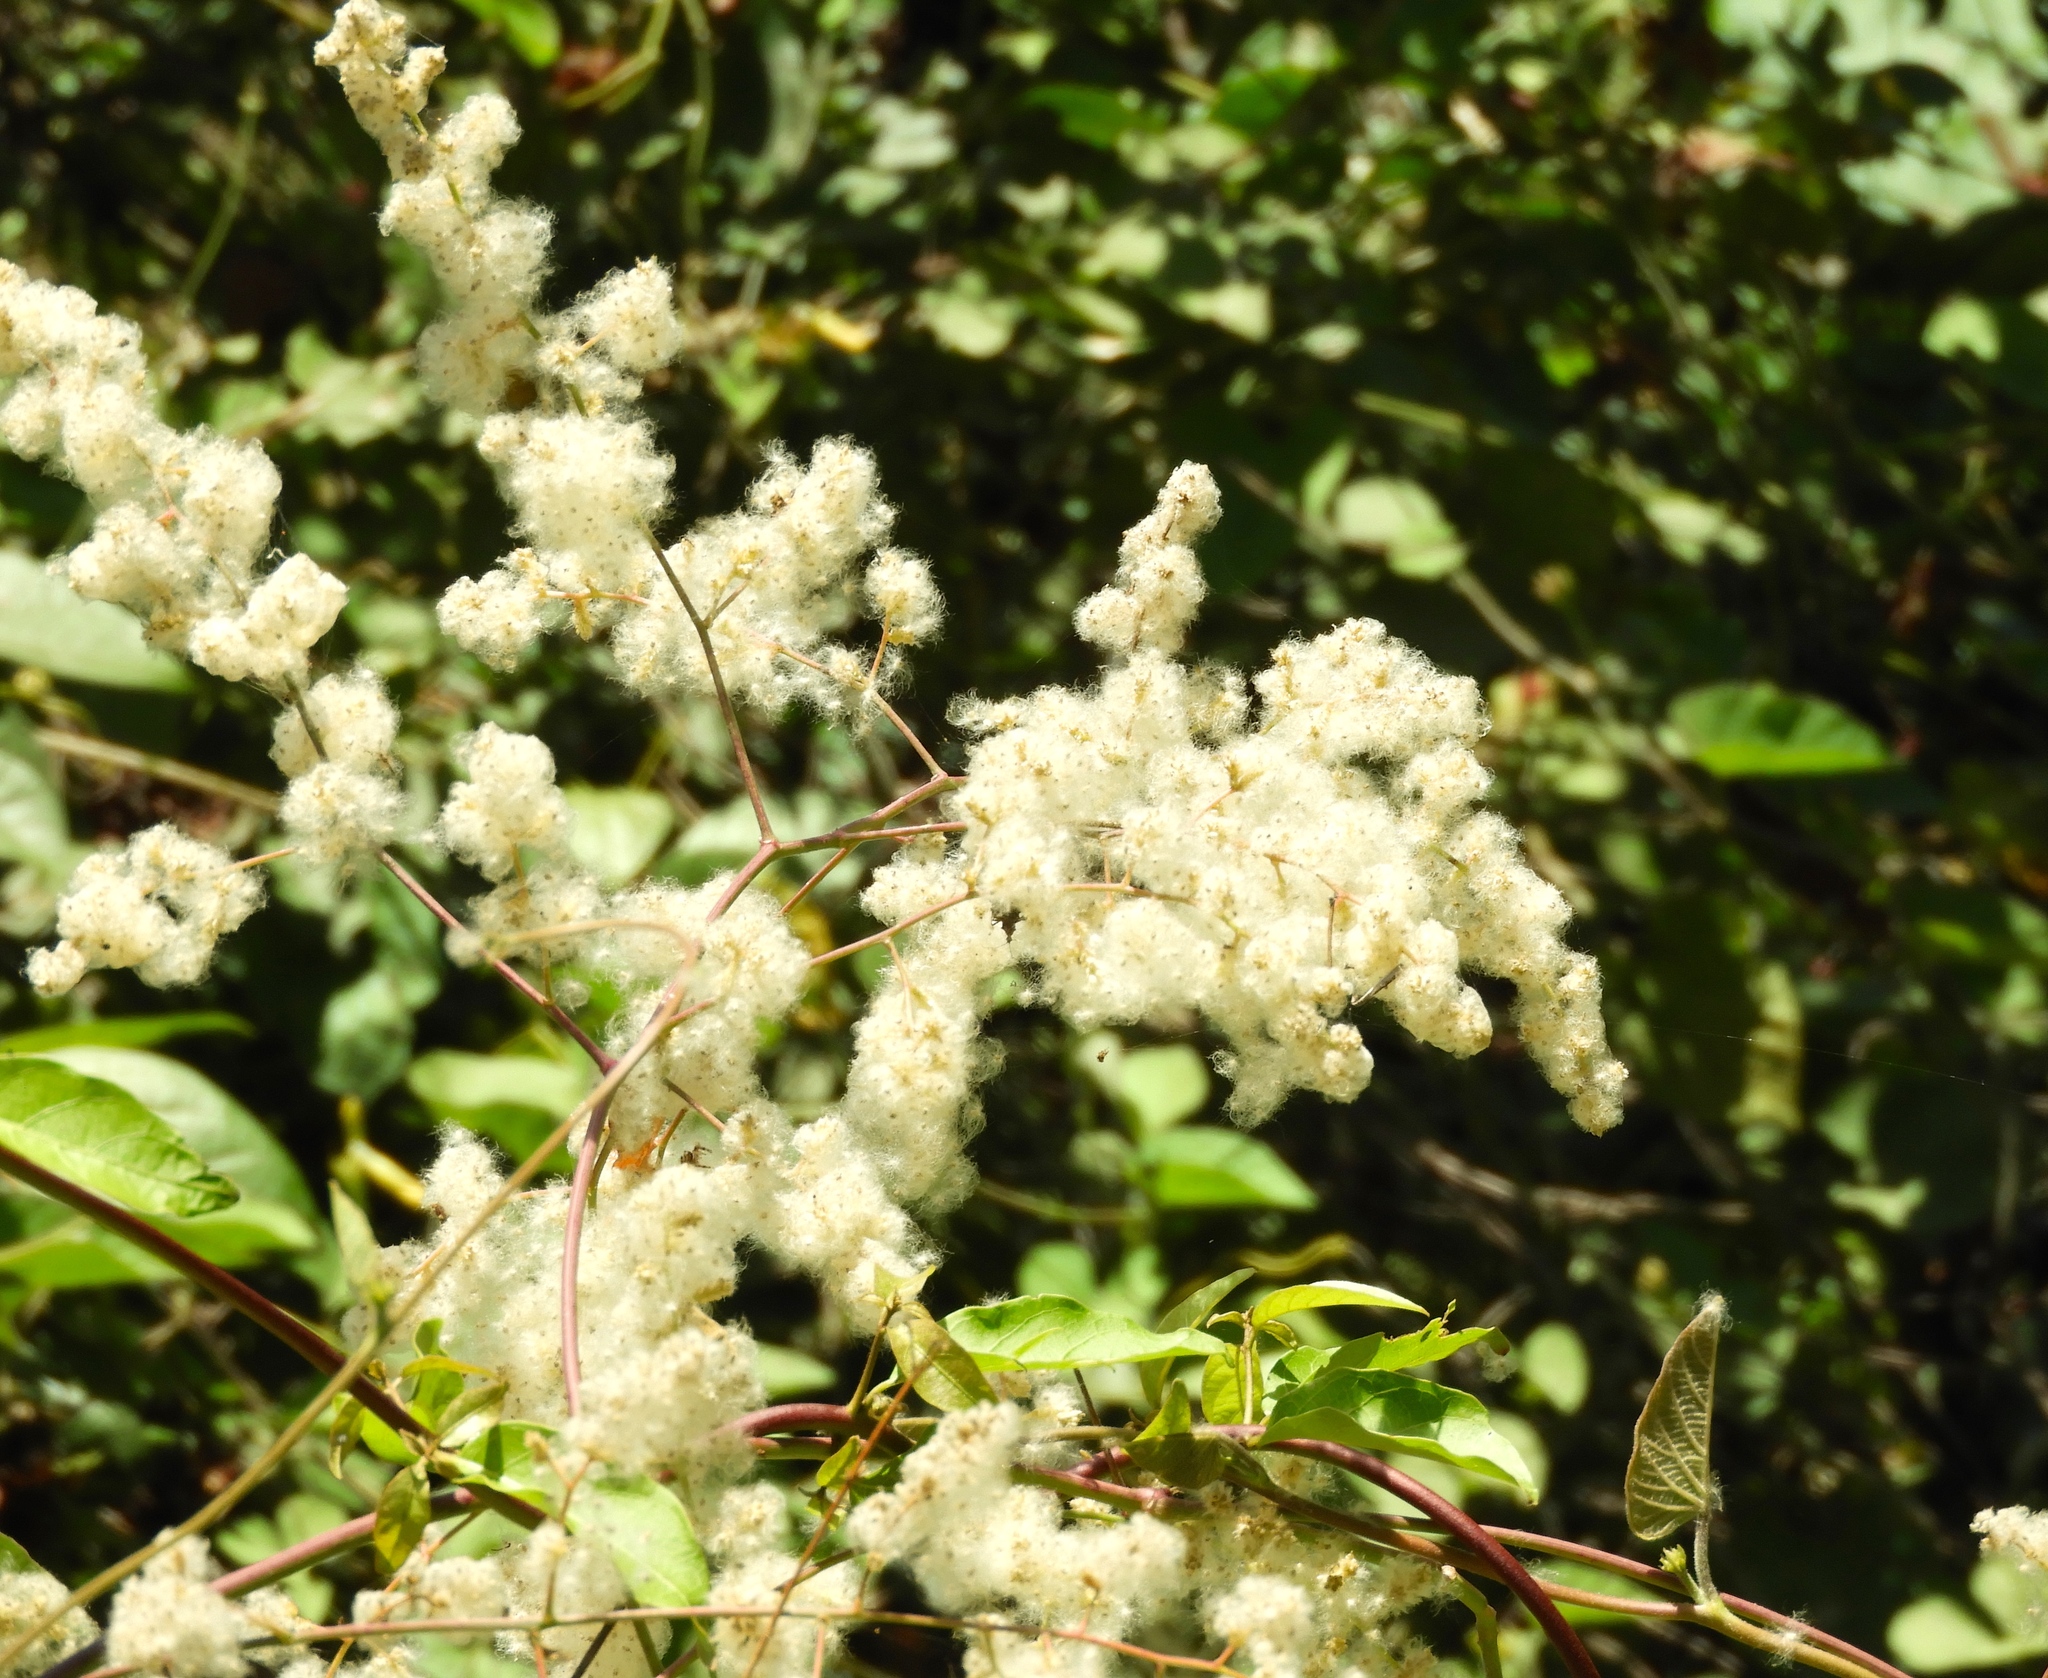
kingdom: Plantae
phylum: Tracheophyta
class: Magnoliopsida
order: Caryophyllales
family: Amaranthaceae
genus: Iresine
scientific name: Iresine diffusa
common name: Juba's-bush
